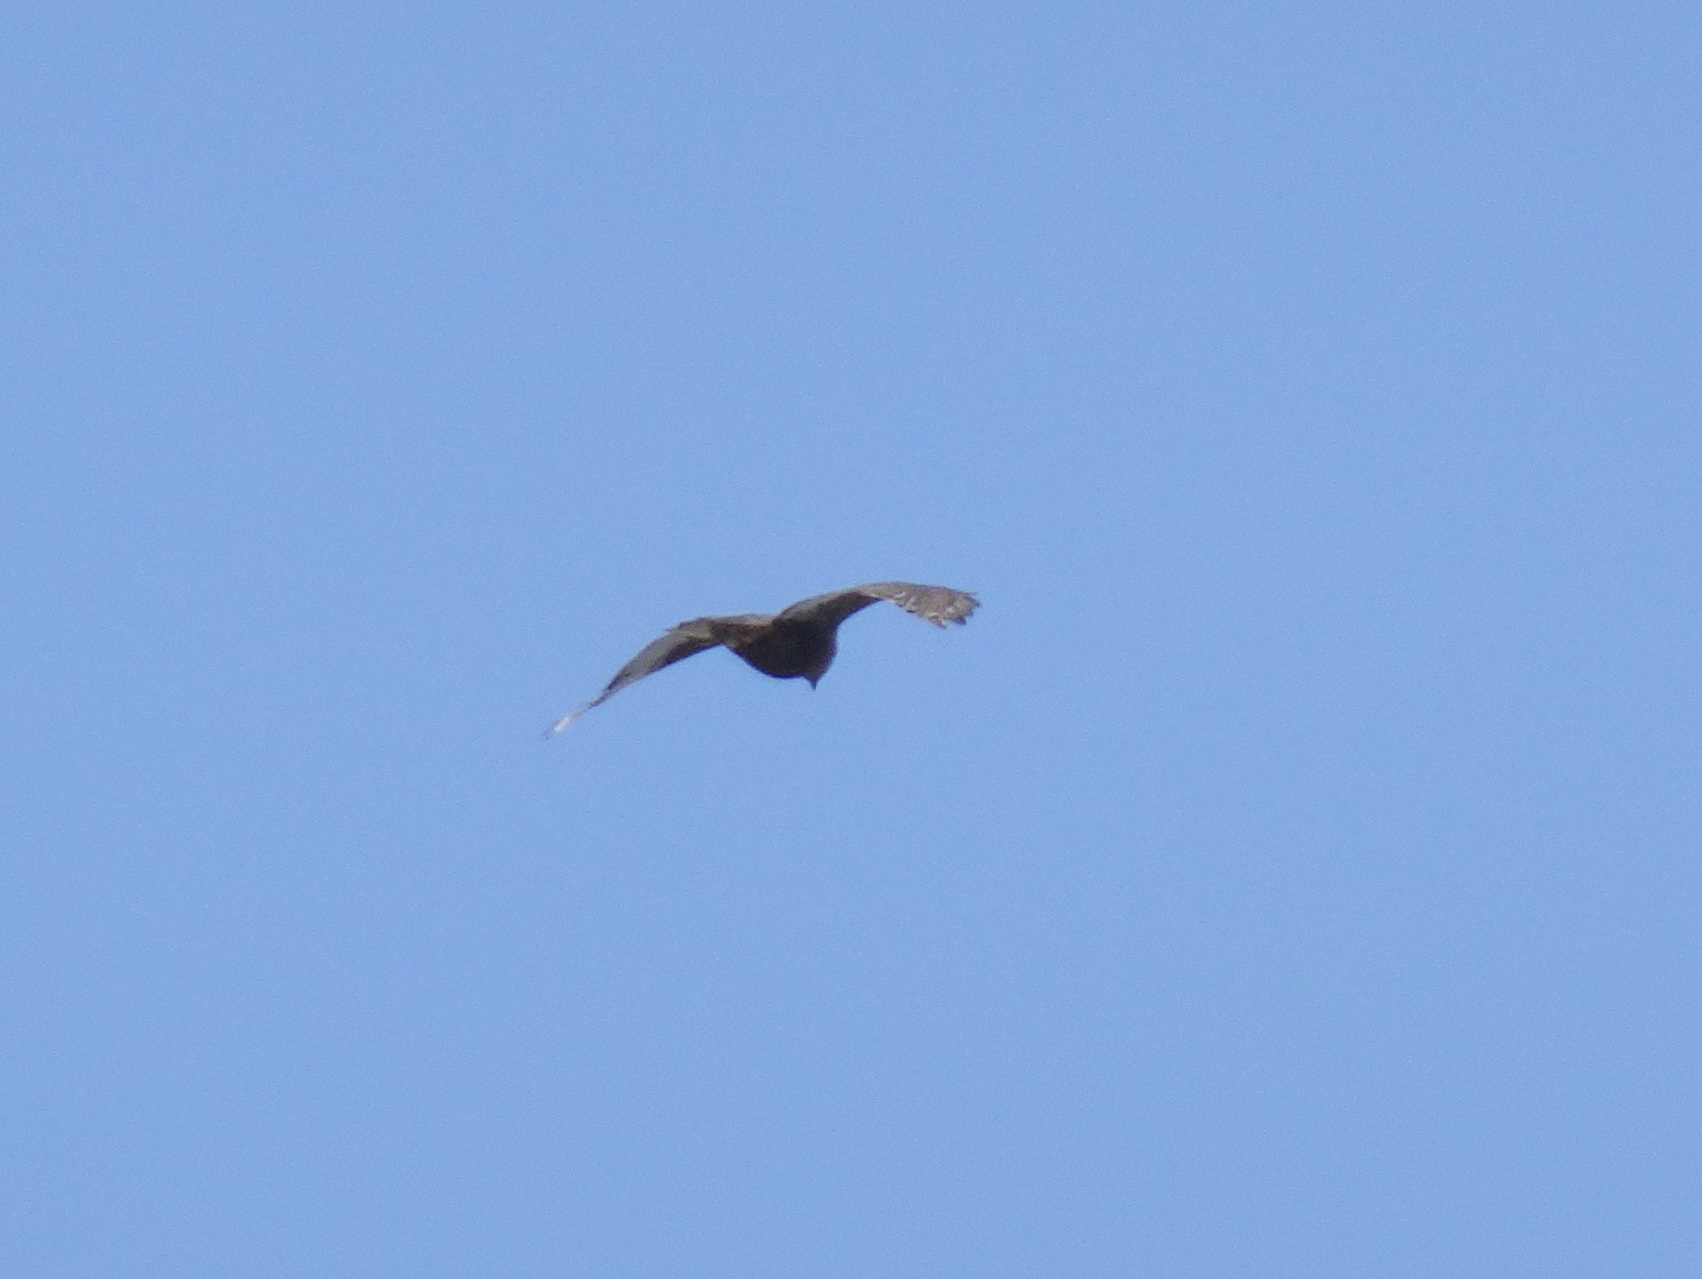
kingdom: Animalia
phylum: Chordata
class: Aves
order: Accipitriformes
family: Accipitridae
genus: Buteo
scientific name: Buteo jamaicensis
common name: Red-tailed hawk
